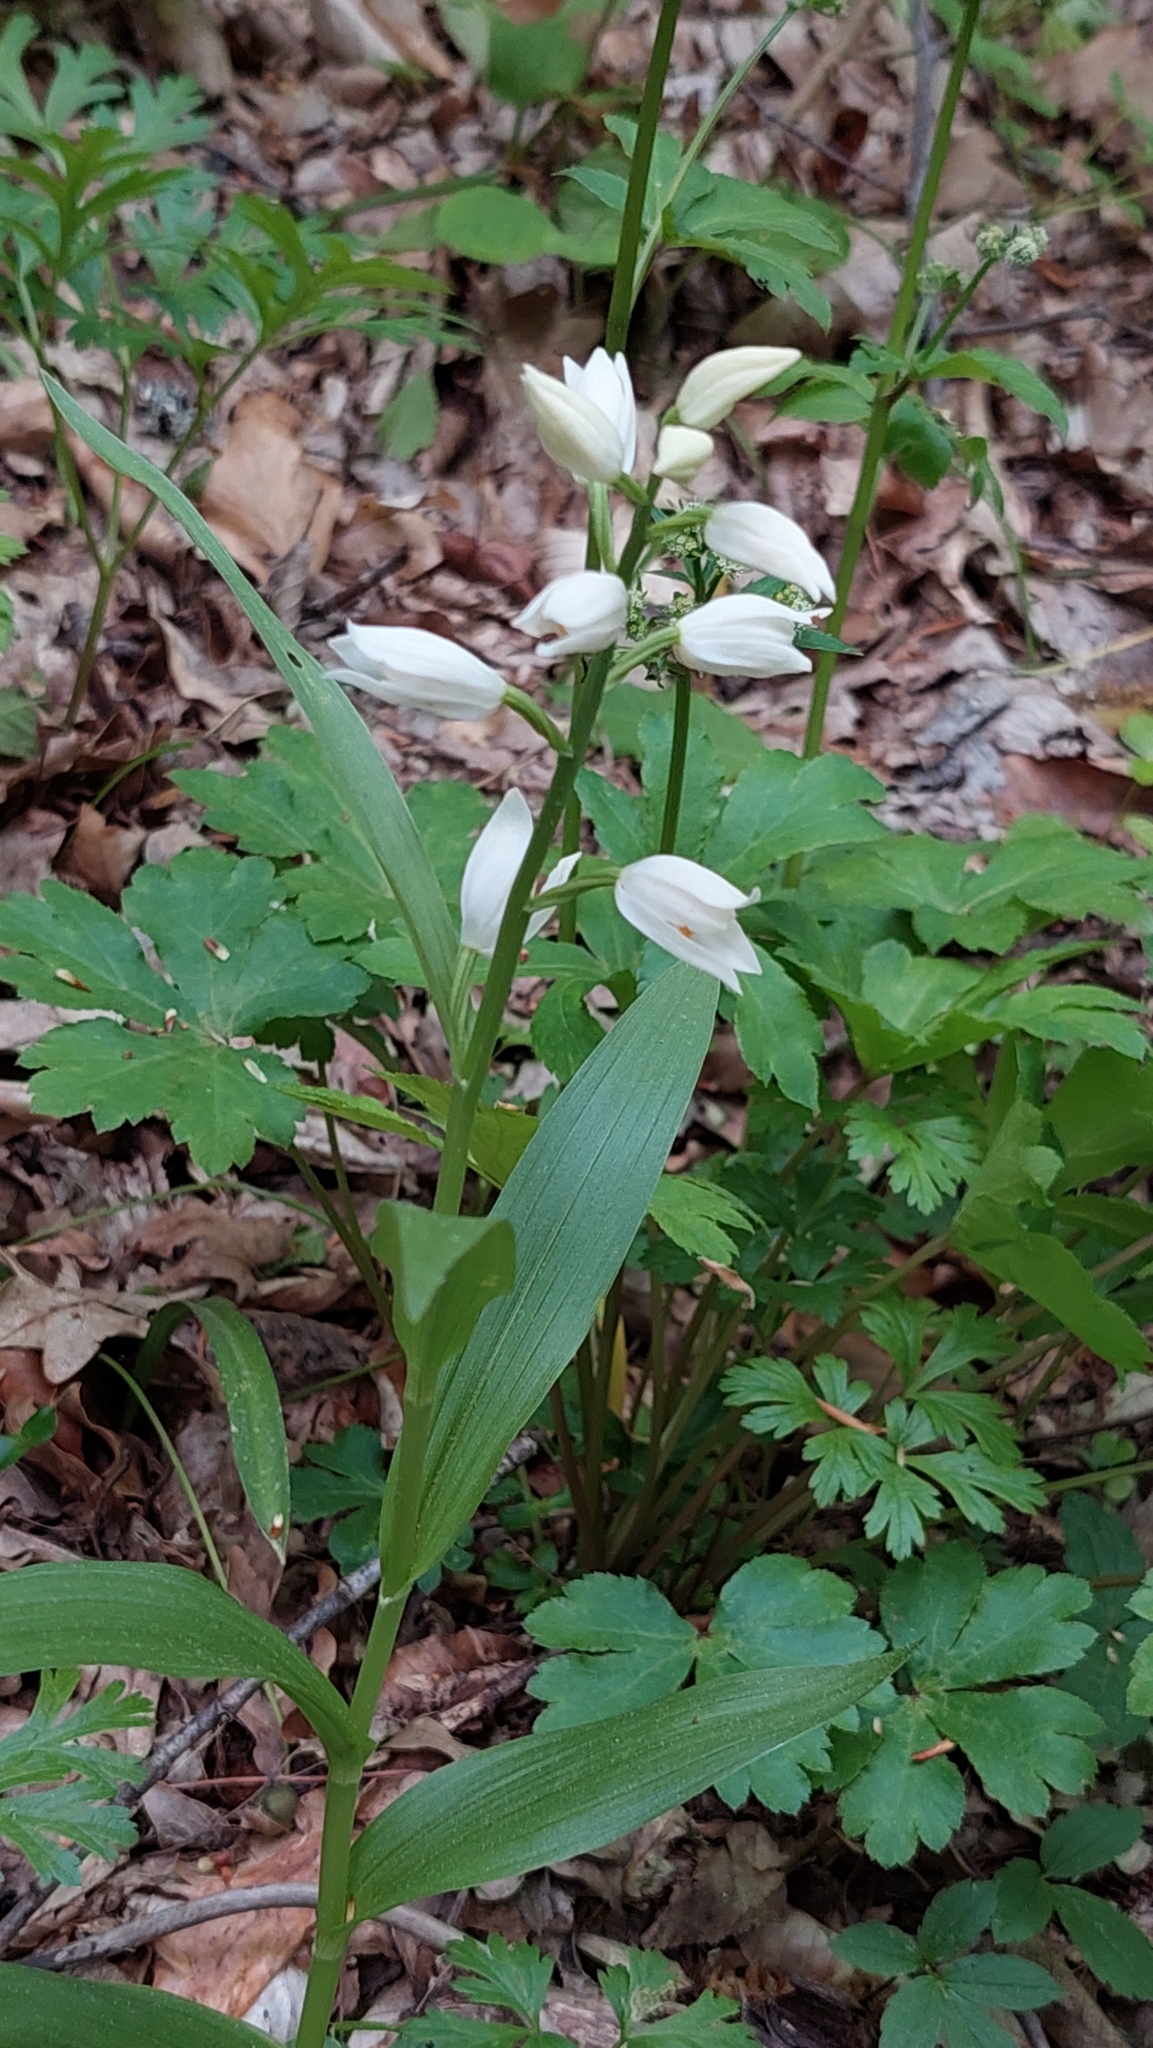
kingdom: Plantae
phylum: Tracheophyta
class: Liliopsida
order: Asparagales
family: Orchidaceae
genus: Cephalanthera
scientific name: Cephalanthera longifolia
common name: Narrow-leaved helleborine
